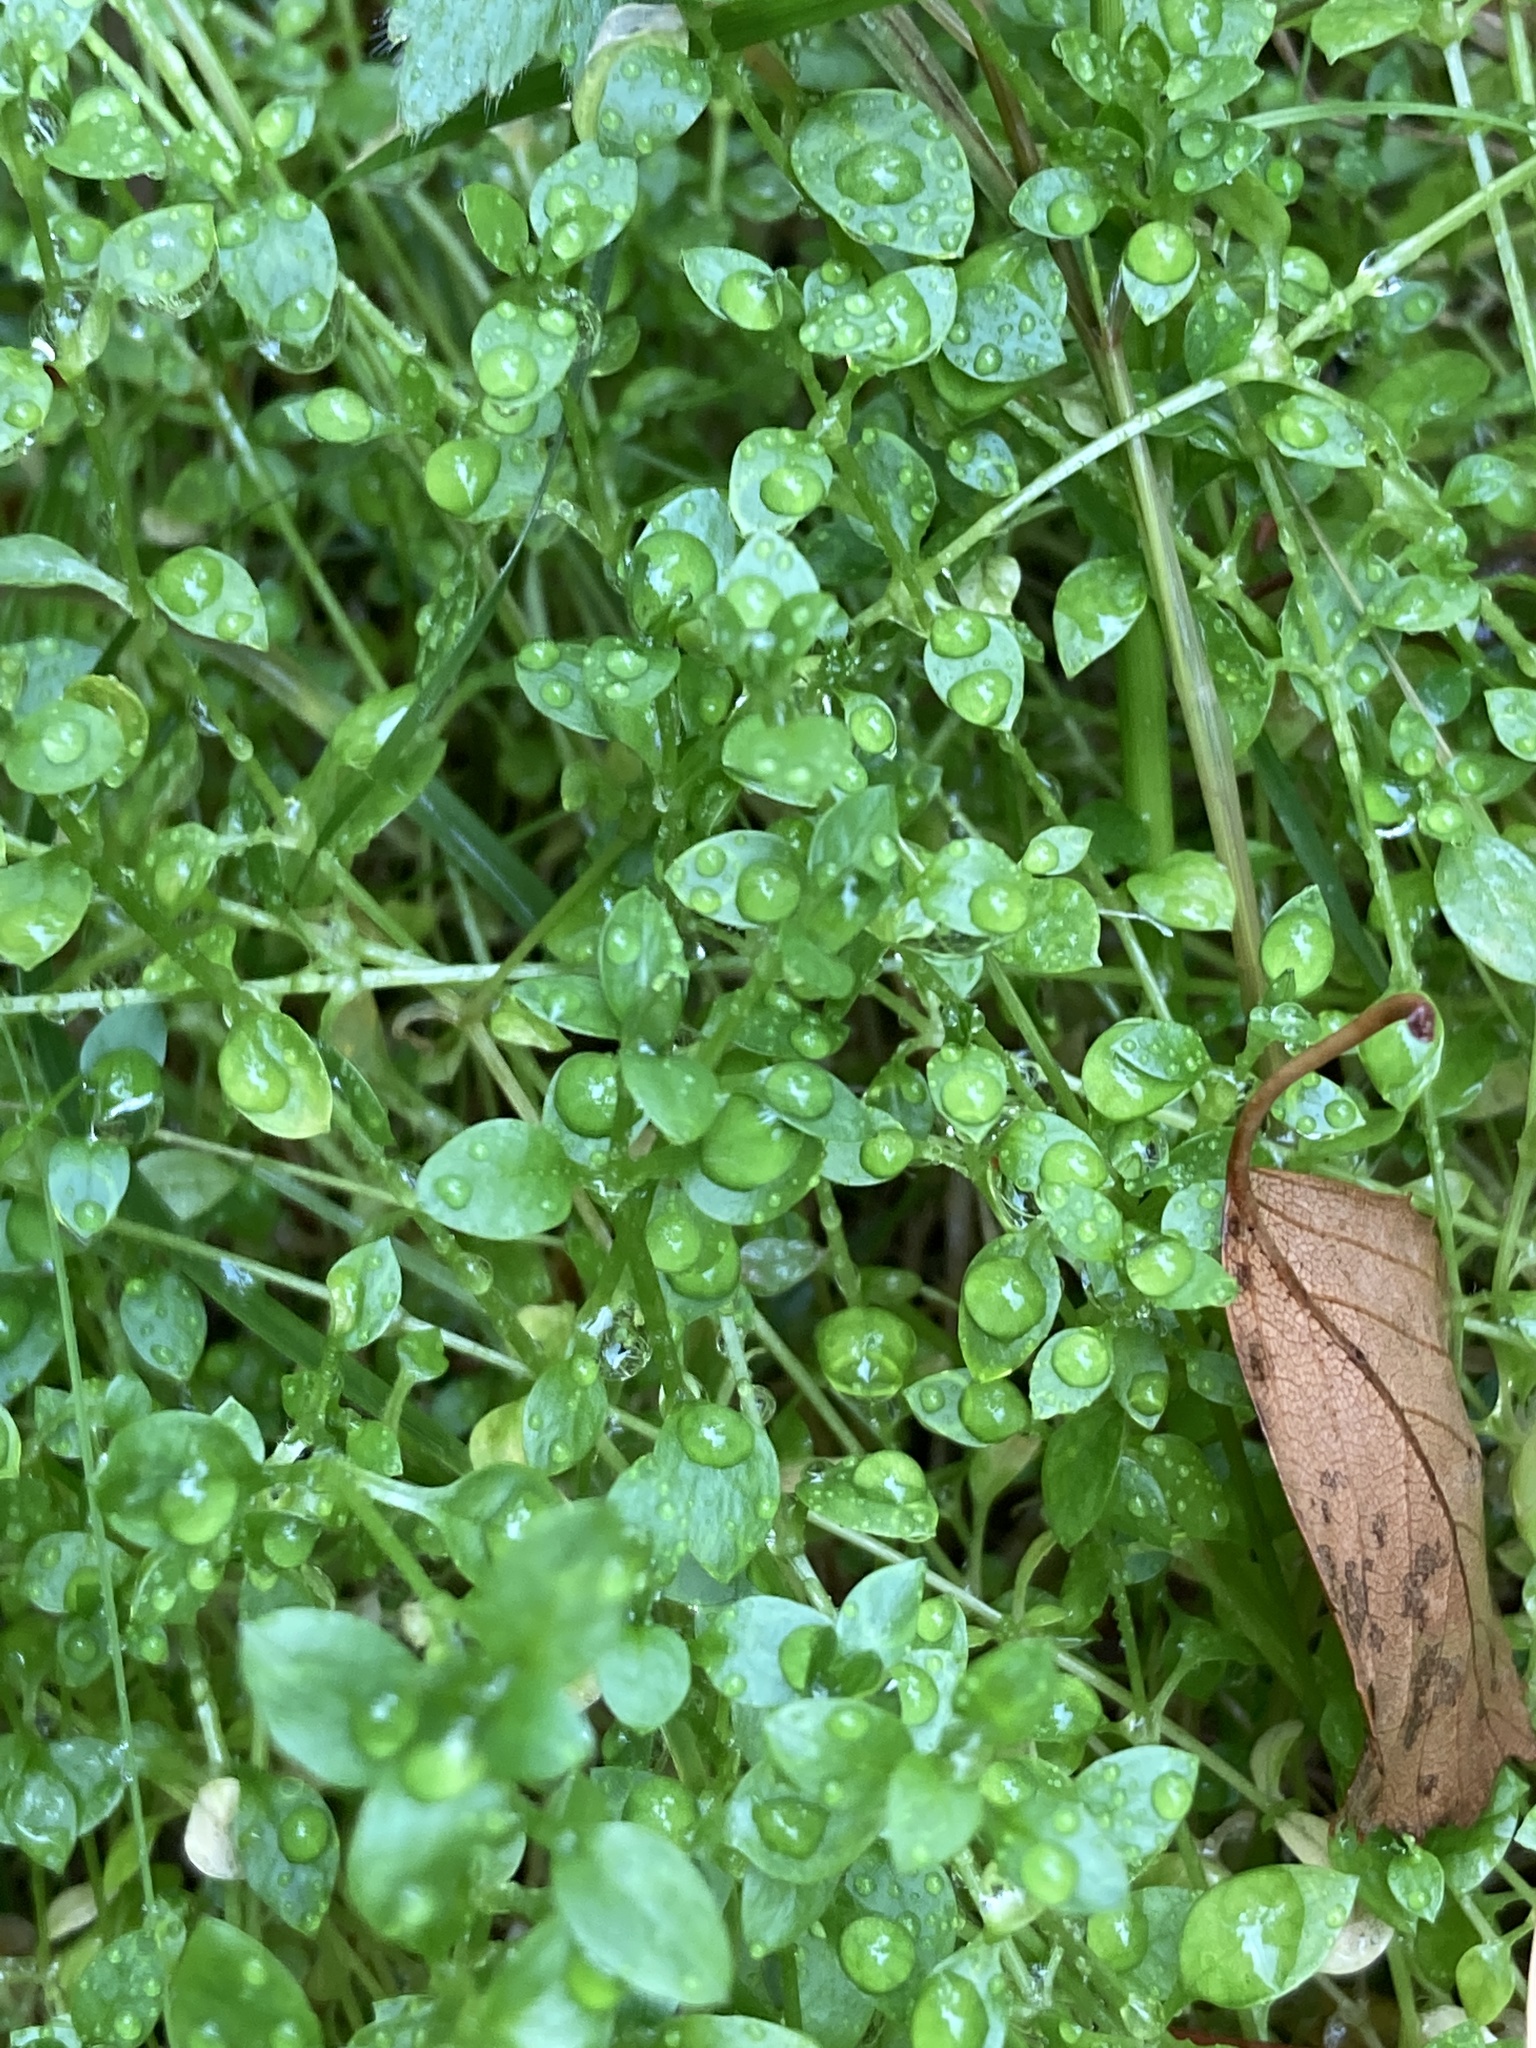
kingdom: Plantae
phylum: Tracheophyta
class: Magnoliopsida
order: Caryophyllales
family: Caryophyllaceae
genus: Stellaria
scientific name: Stellaria media
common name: Common chickweed
